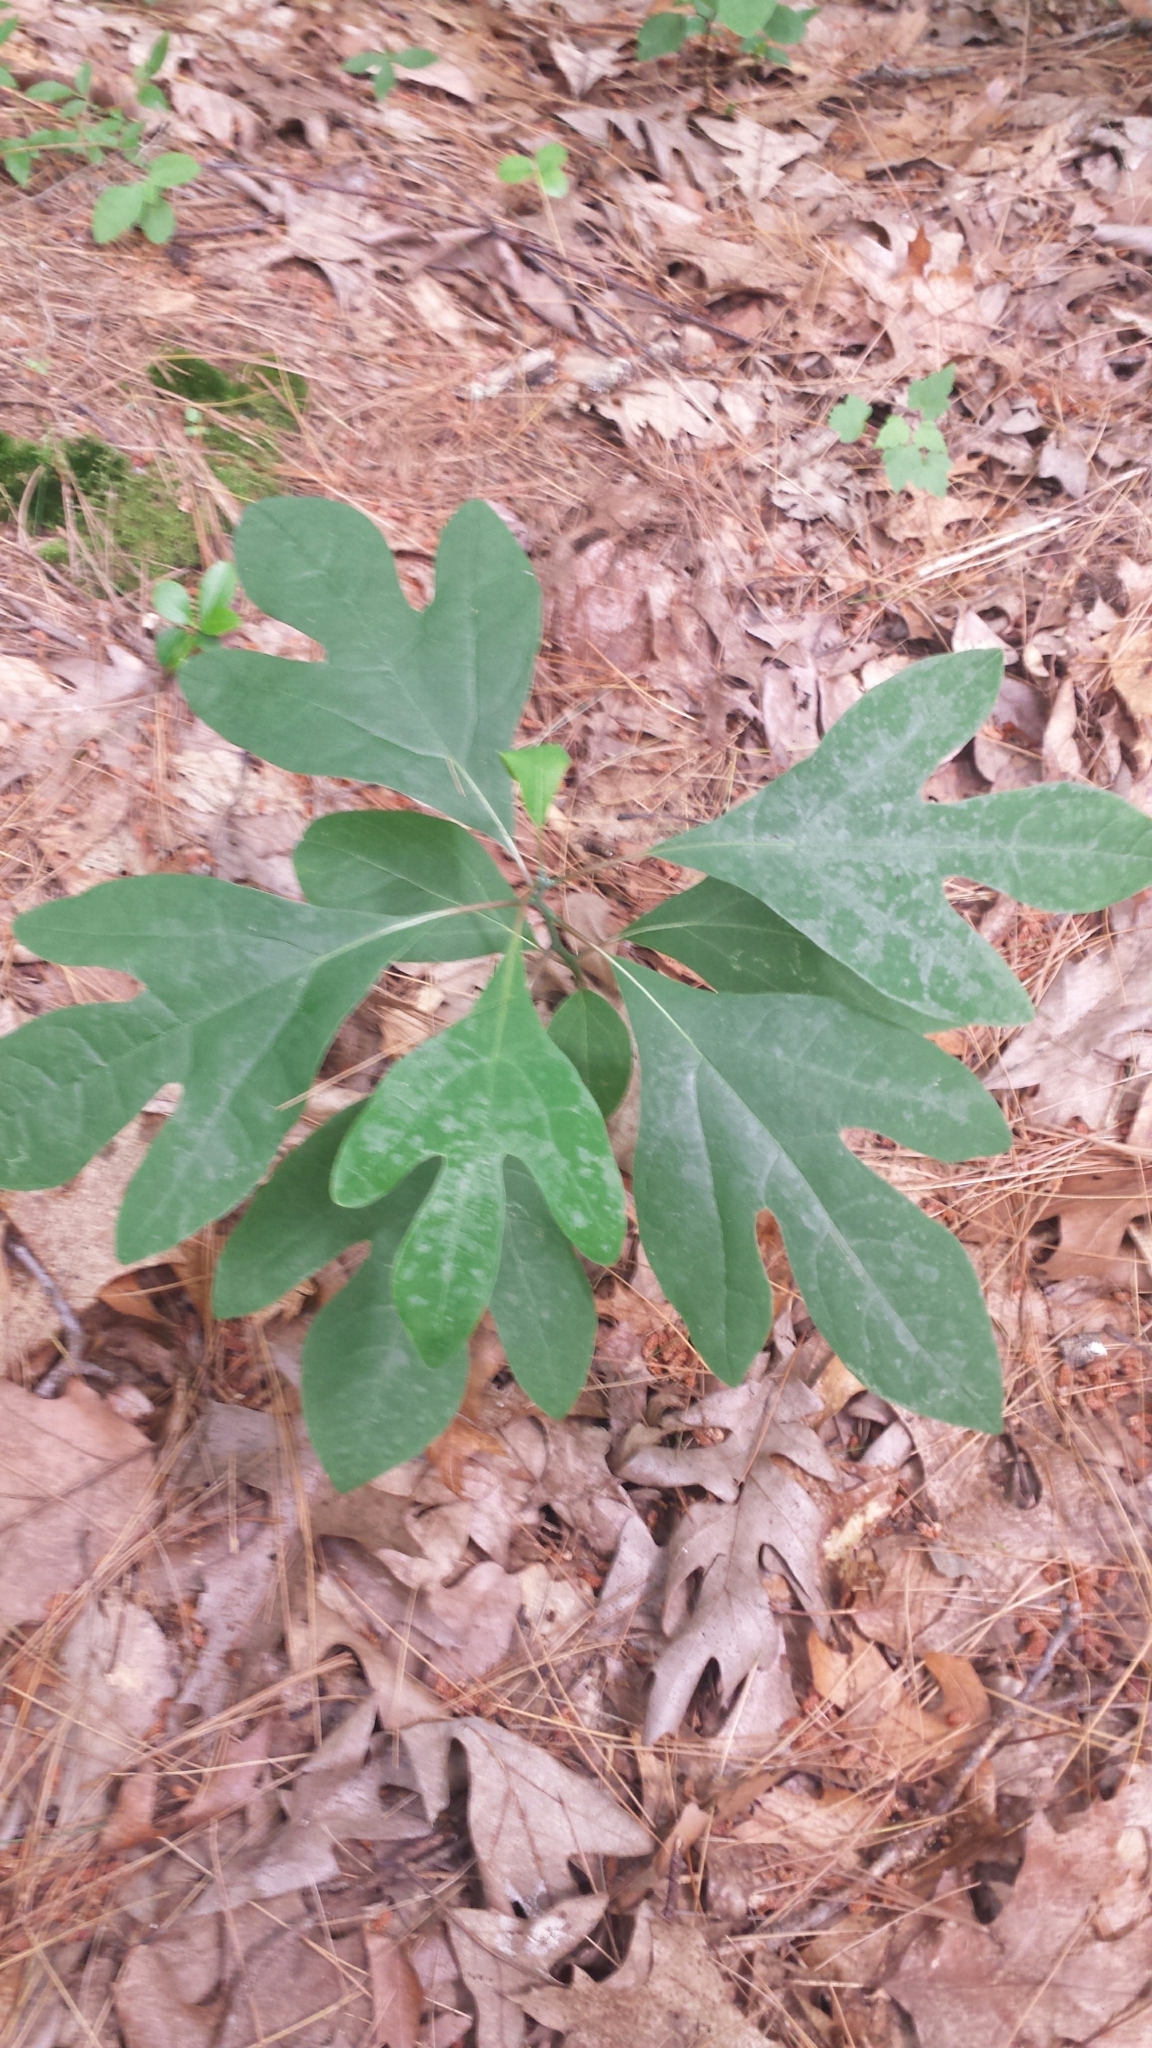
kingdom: Plantae
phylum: Tracheophyta
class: Magnoliopsida
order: Laurales
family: Lauraceae
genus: Sassafras
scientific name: Sassafras albidum
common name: Sassafras
